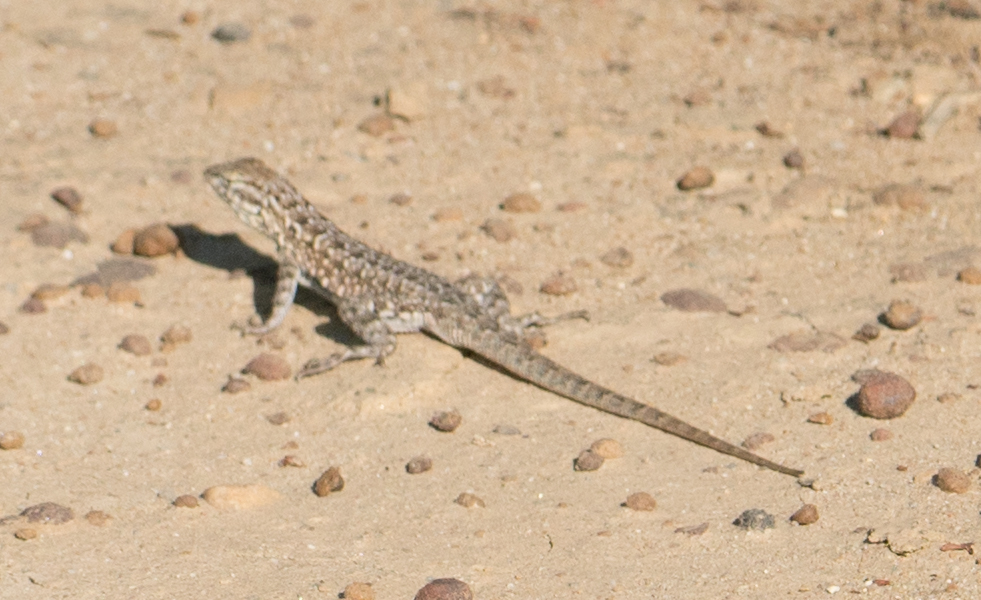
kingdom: Animalia
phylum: Chordata
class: Squamata
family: Phrynosomatidae
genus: Uta
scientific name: Uta stansburiana
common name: Side-blotched lizard
